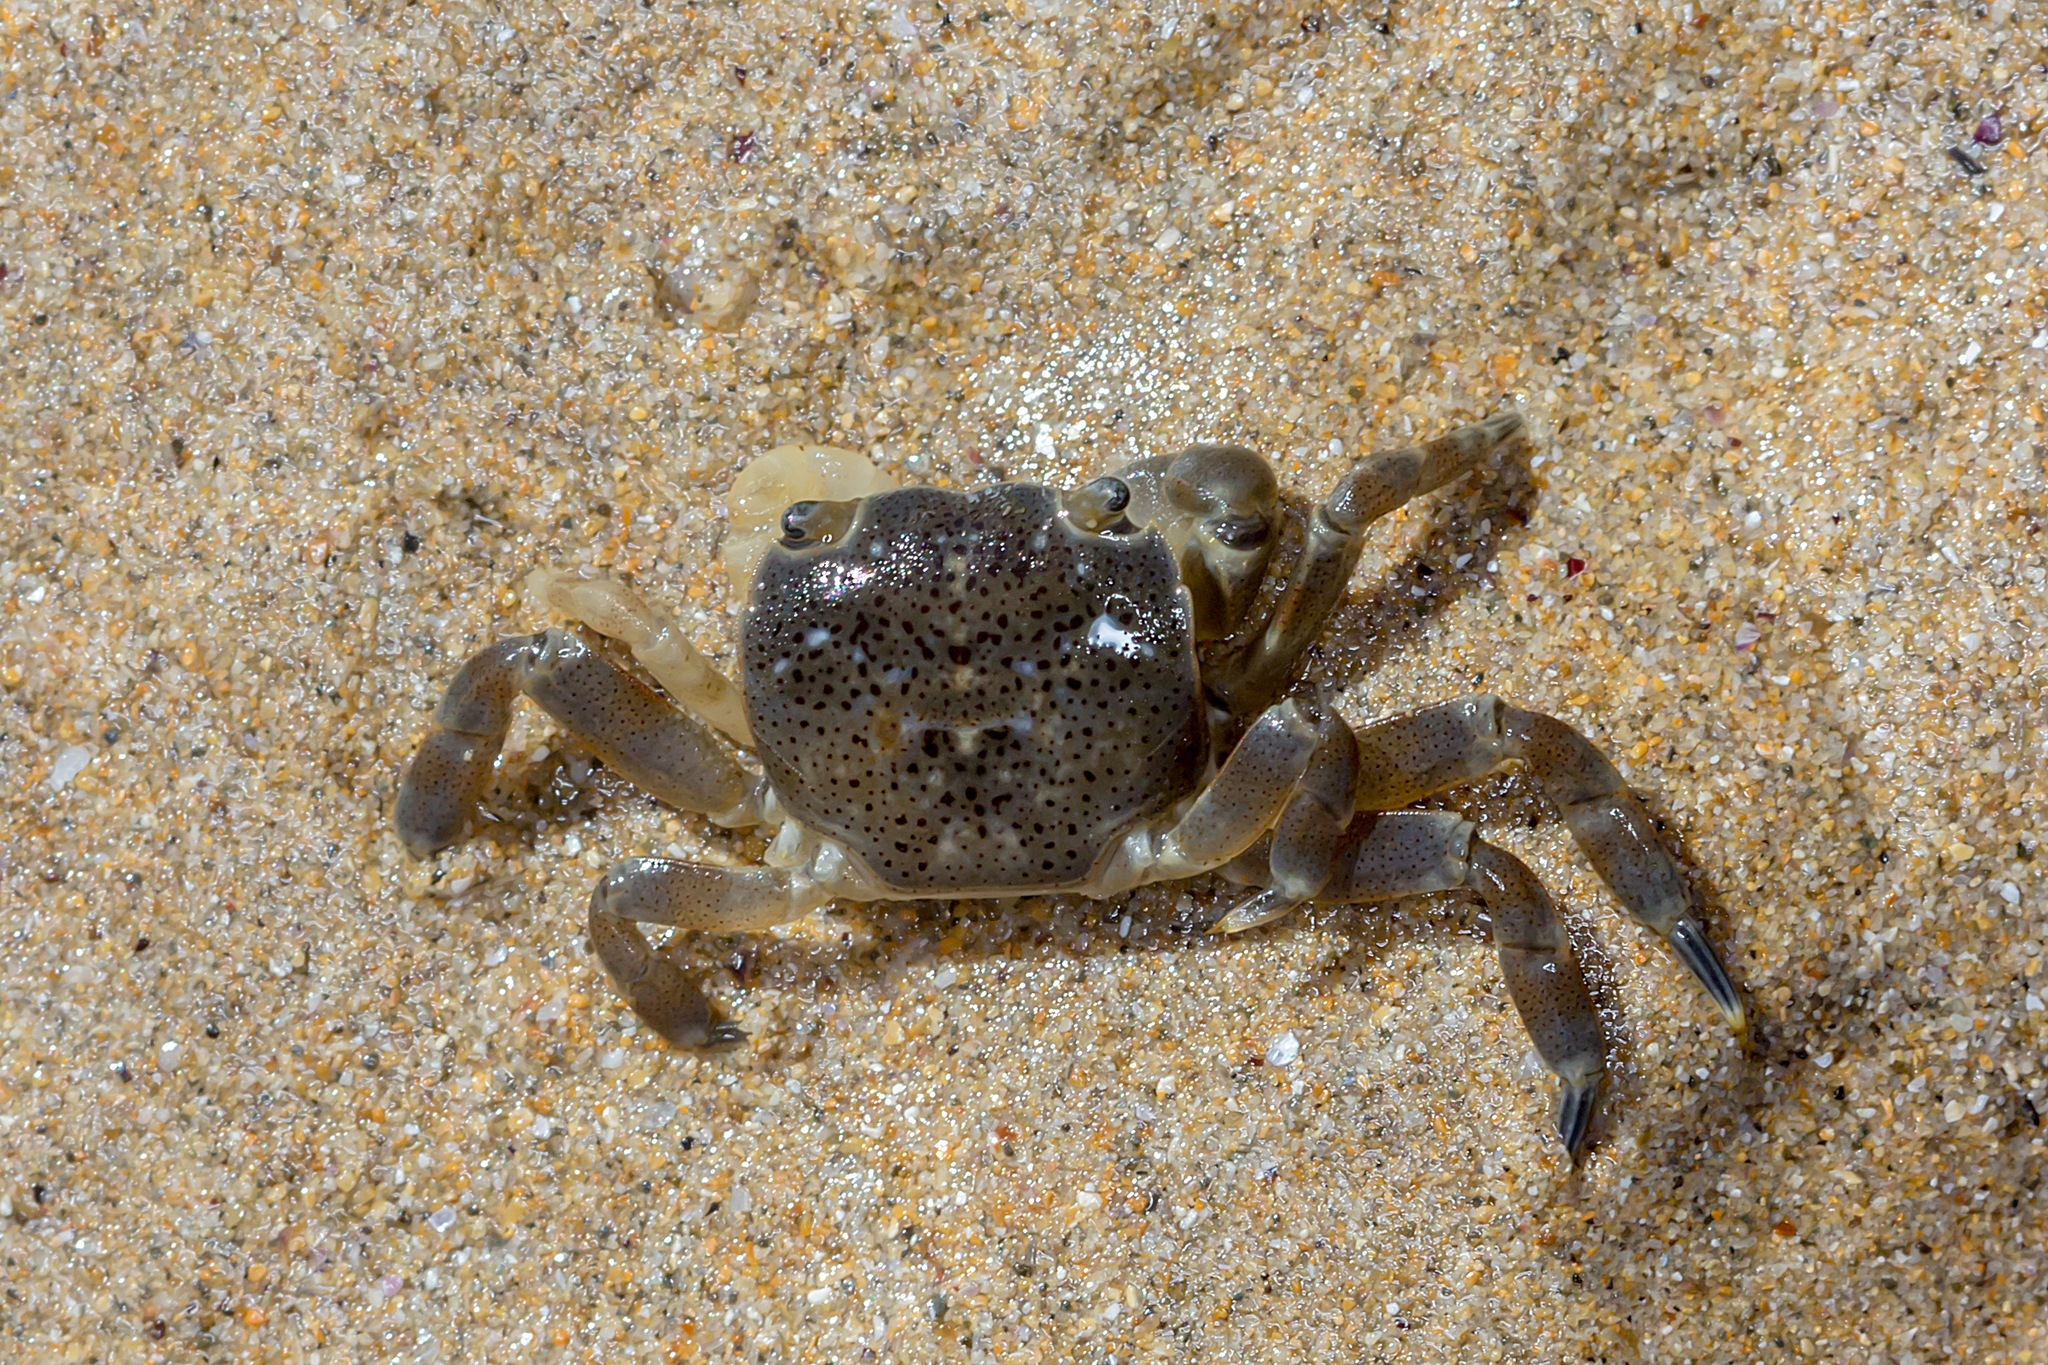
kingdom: Animalia
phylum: Arthropoda
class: Malacostraca
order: Decapoda
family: Varunidae
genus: Paragrapsus
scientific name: Paragrapsus quadridentatus
